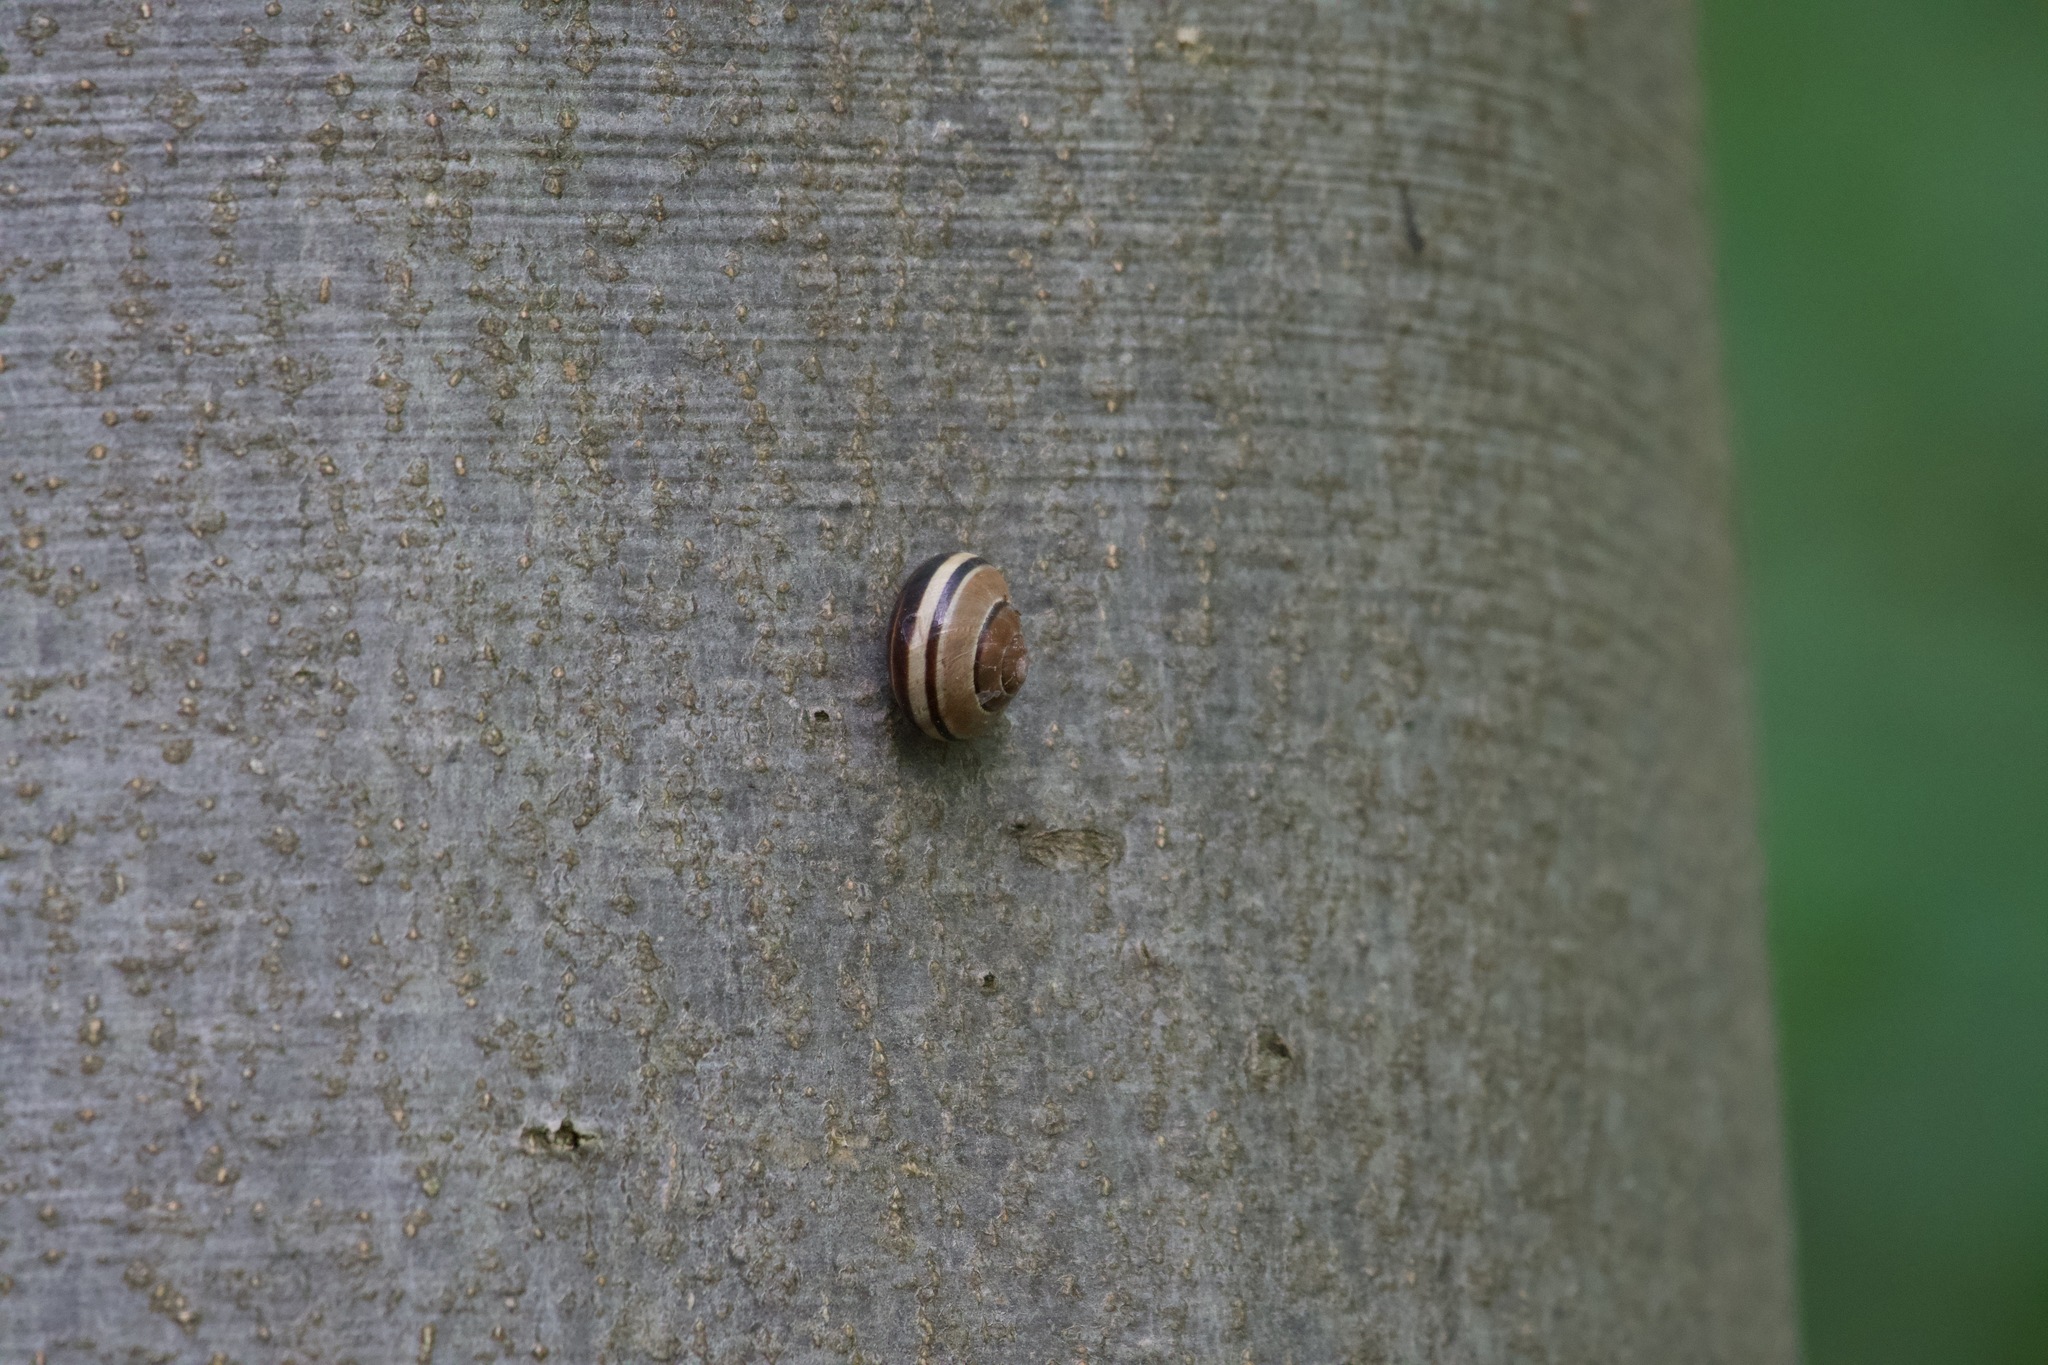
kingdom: Animalia
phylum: Mollusca
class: Gastropoda
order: Stylommatophora
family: Helicidae
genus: Cepaea
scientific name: Cepaea nemoralis
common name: Grovesnail
